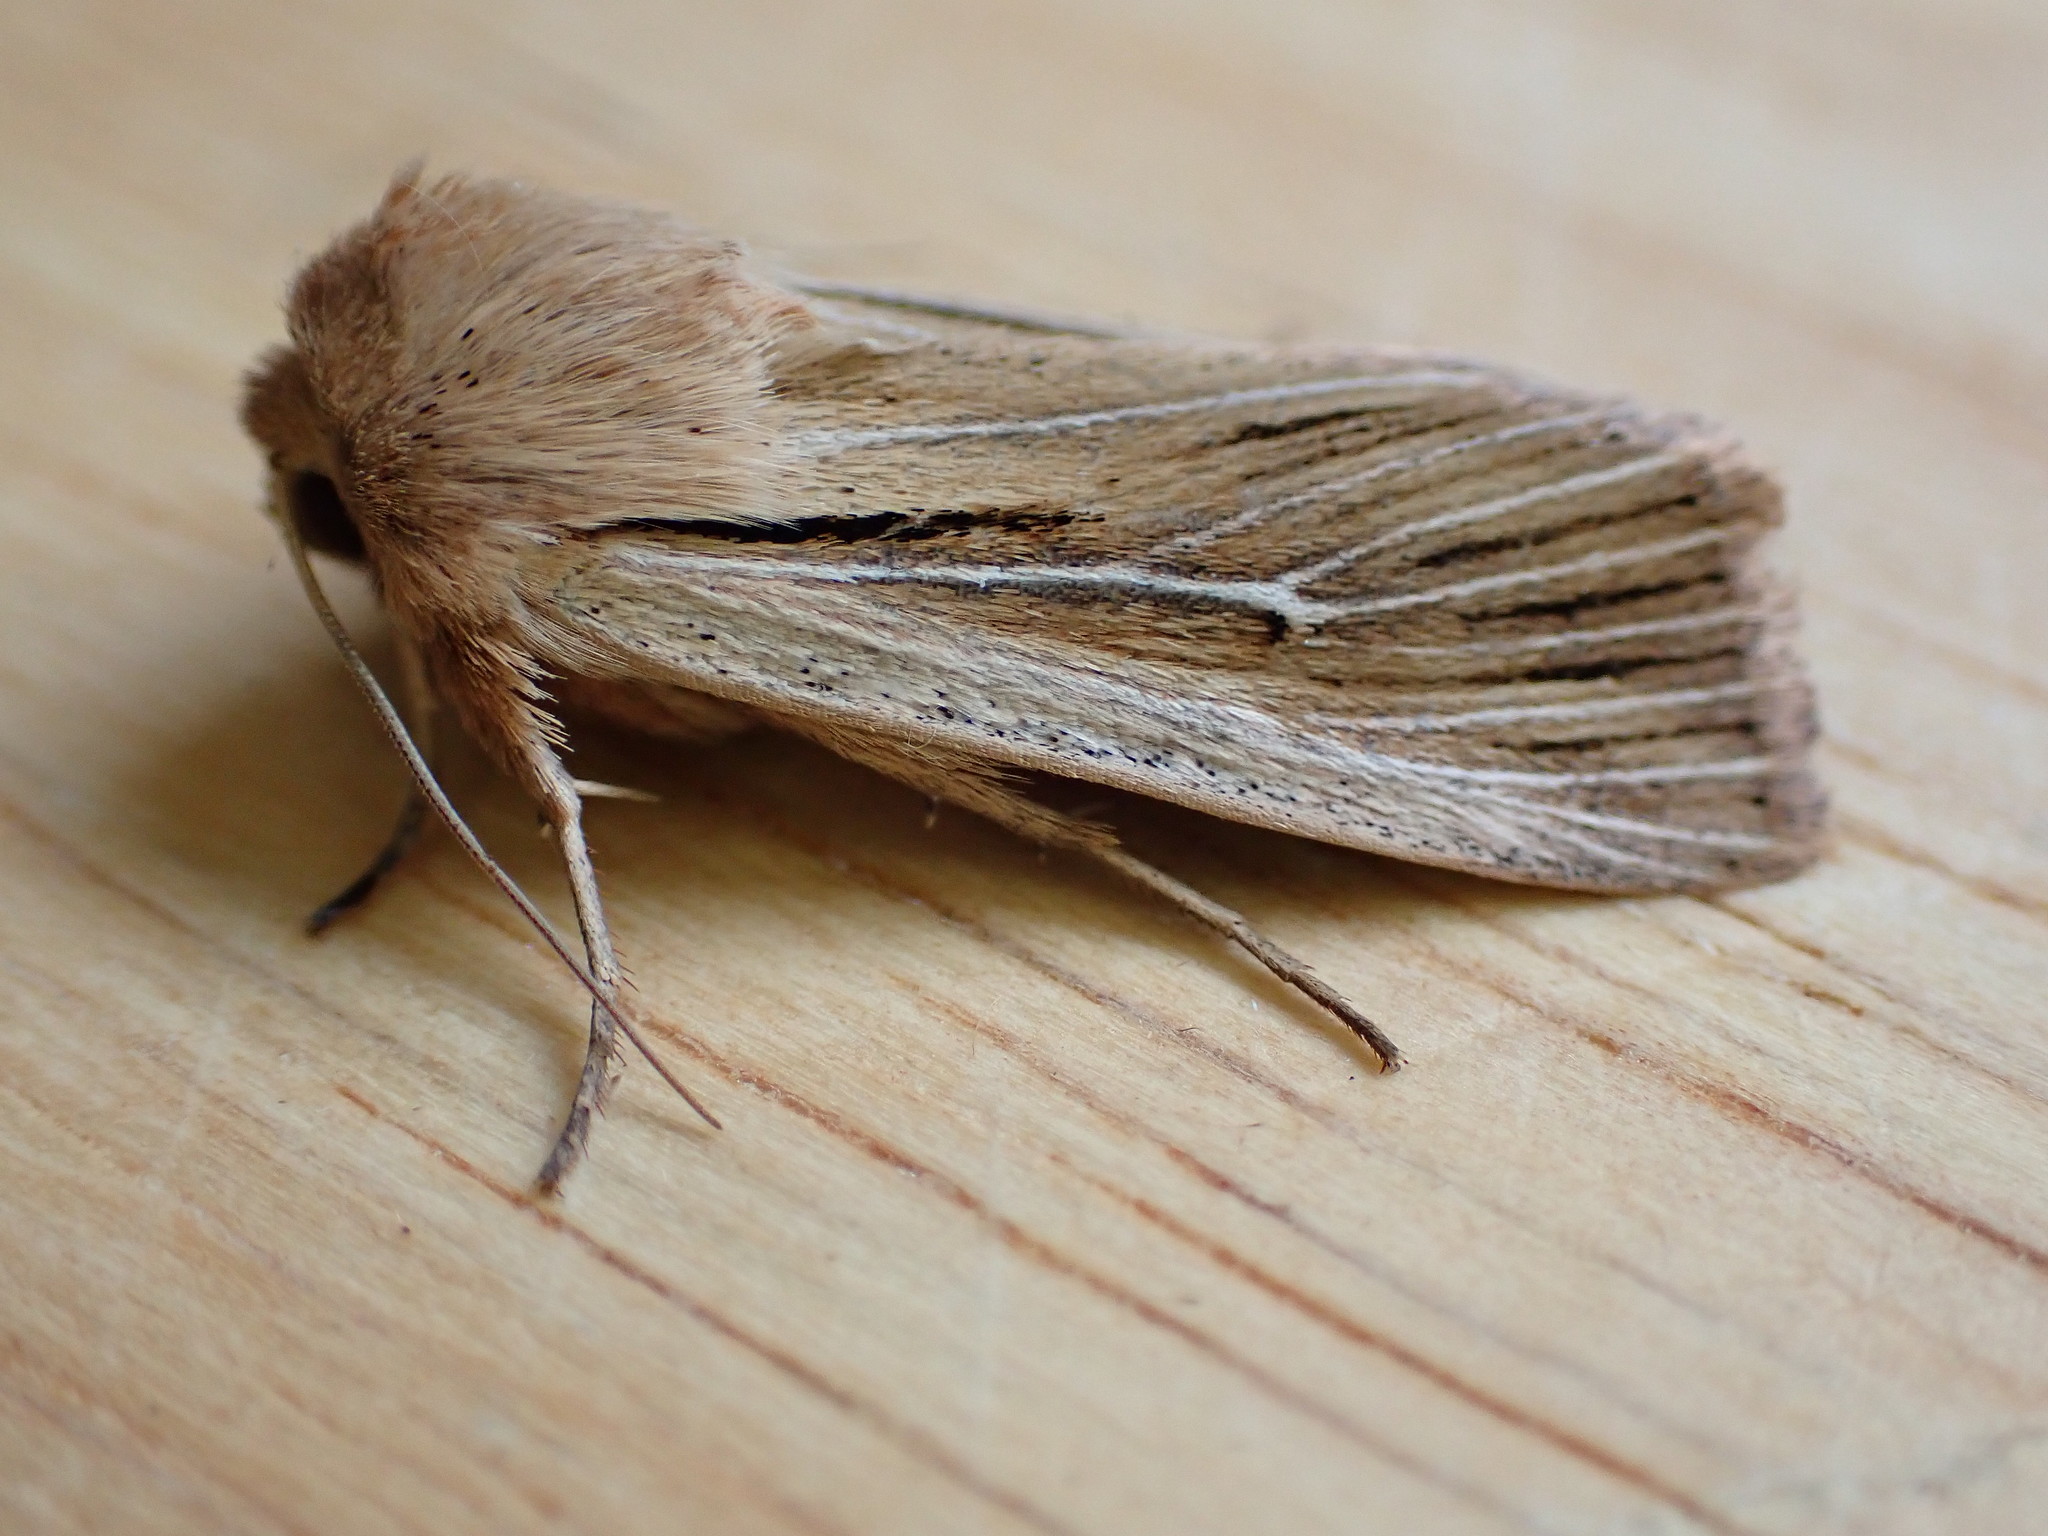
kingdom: Animalia
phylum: Arthropoda
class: Insecta
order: Lepidoptera
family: Noctuidae
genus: Leucania
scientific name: Leucania comma
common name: Shoulder-striped wainscot
